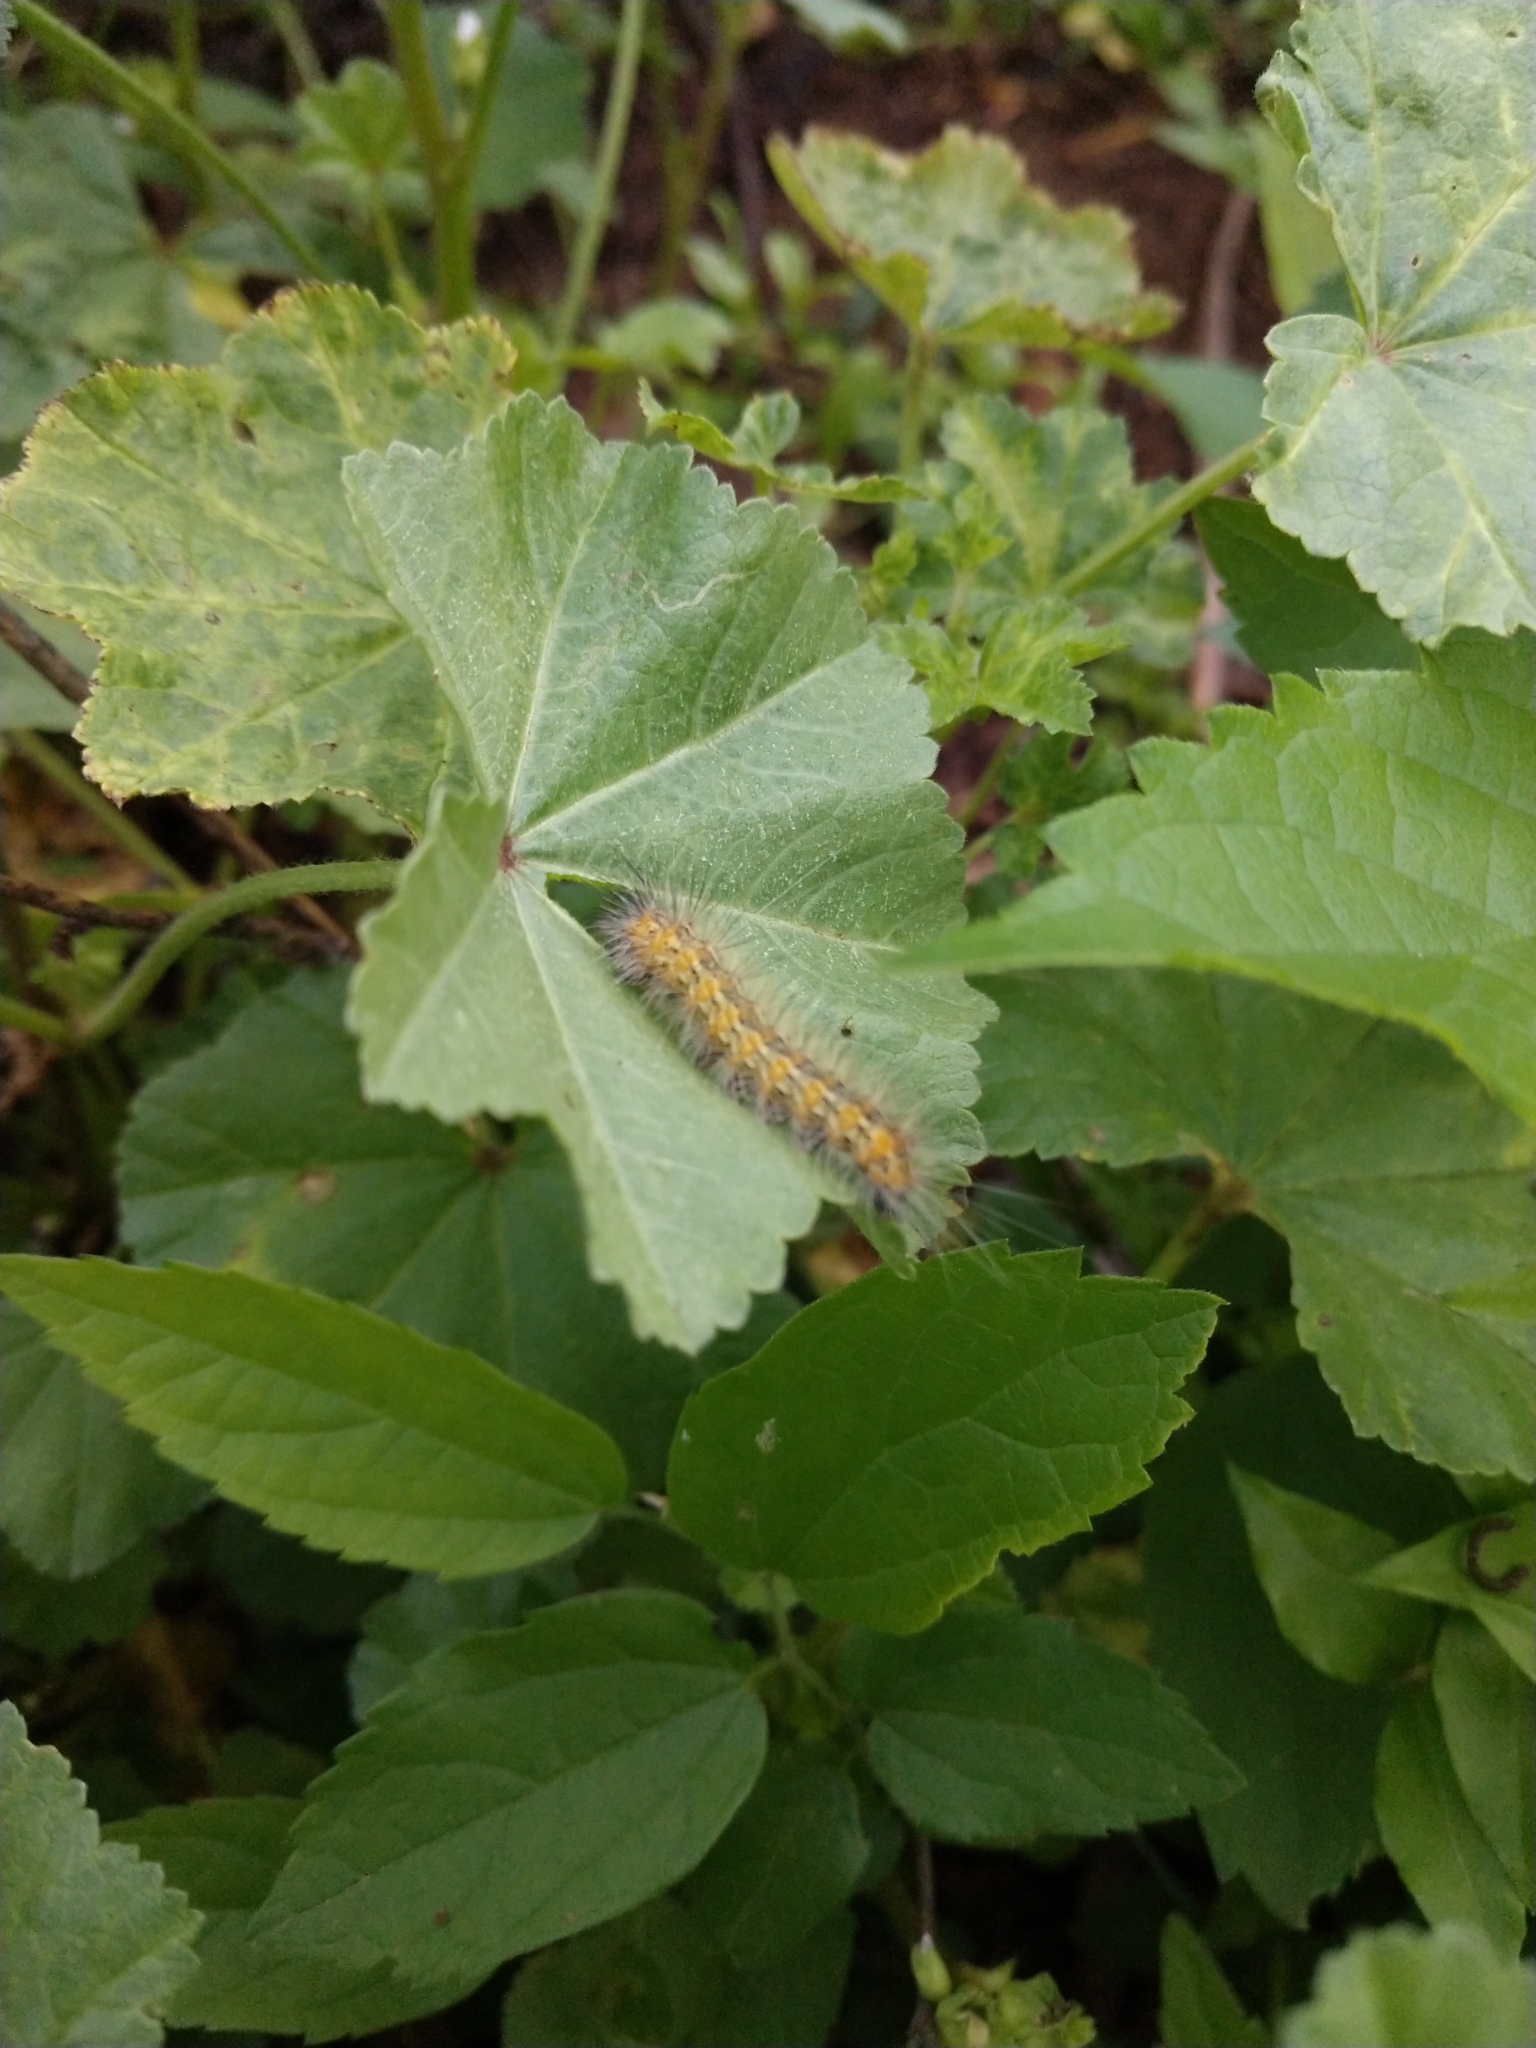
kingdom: Animalia
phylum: Arthropoda
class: Insecta
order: Lepidoptera
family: Erebidae
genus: Estigmene
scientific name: Estigmene acrea
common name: Salt marsh moth
